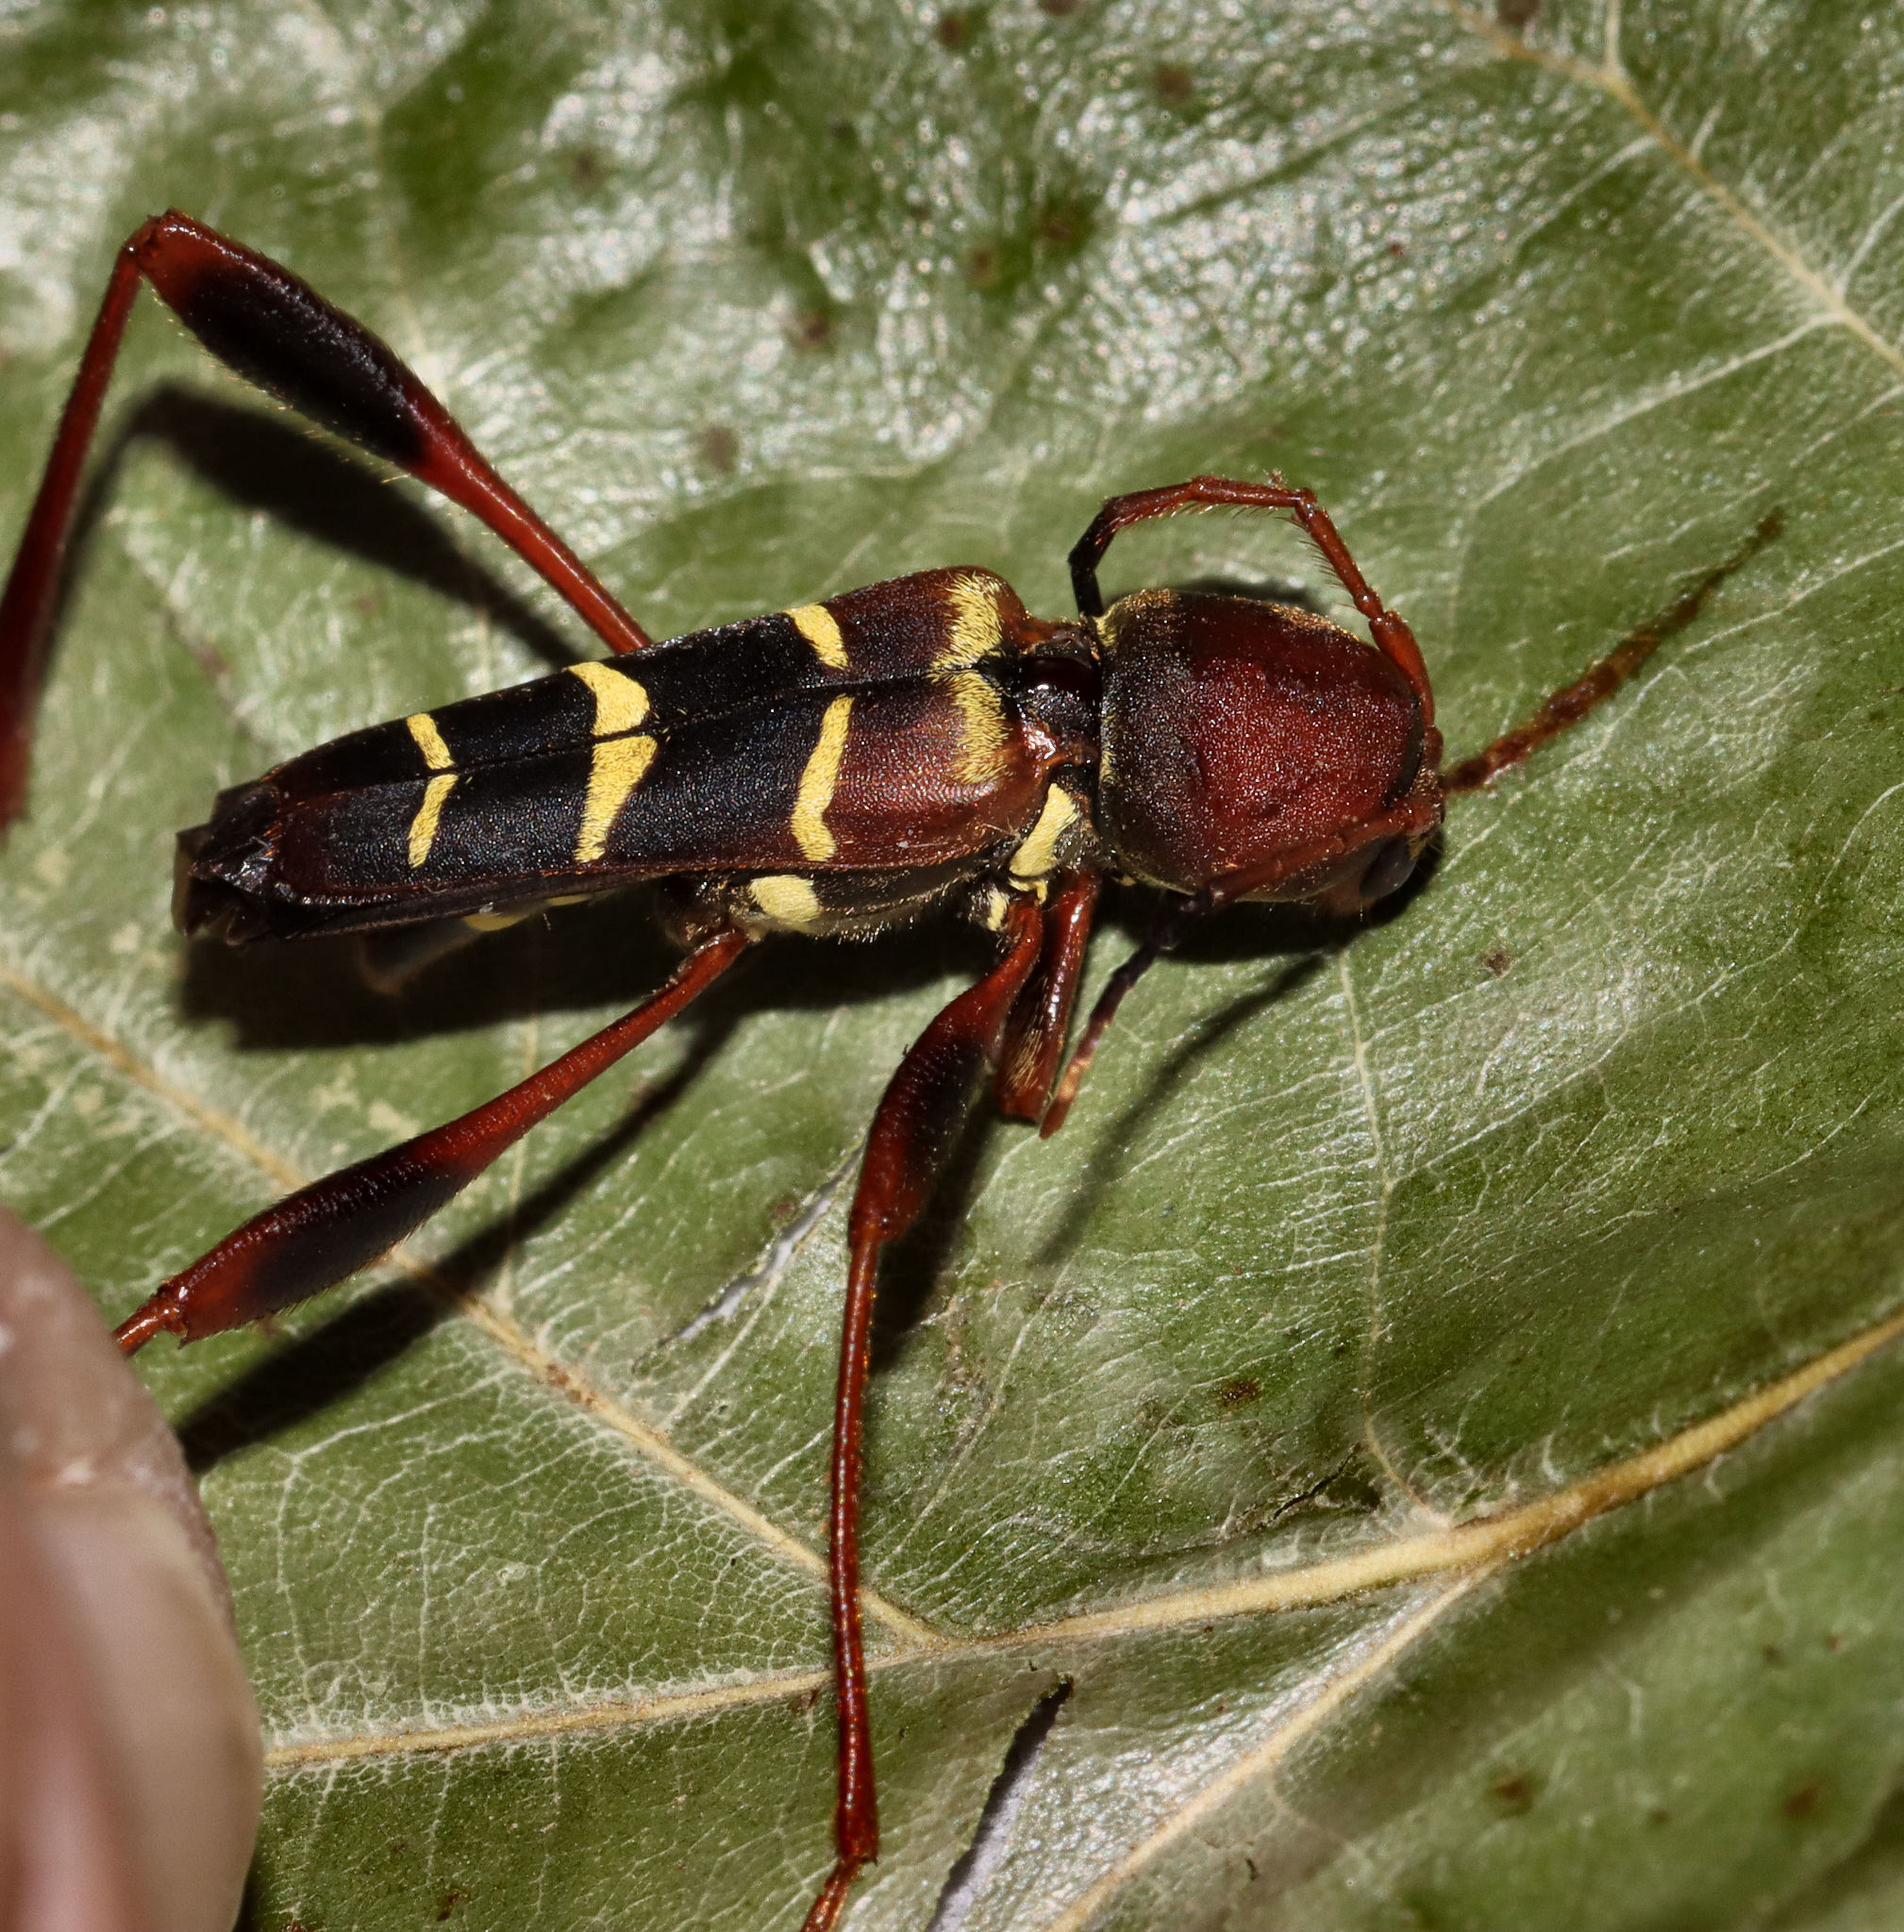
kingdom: Animalia
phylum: Arthropoda
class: Insecta
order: Coleoptera
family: Cerambycidae
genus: Neoclytus
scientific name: Neoclytus acuminatus
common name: Read-headed ash borer
